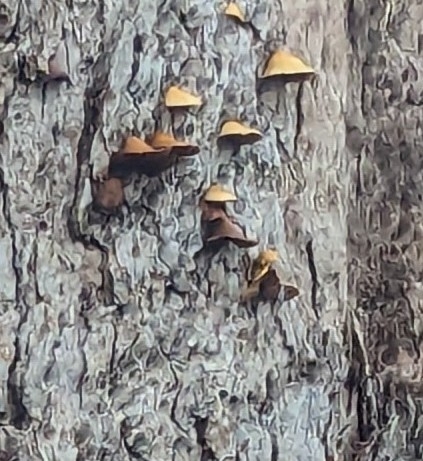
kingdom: Fungi
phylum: Basidiomycota
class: Agaricomycetes
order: Agaricales
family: Crepidotaceae
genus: Crepidotus
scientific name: Crepidotus calolepis
